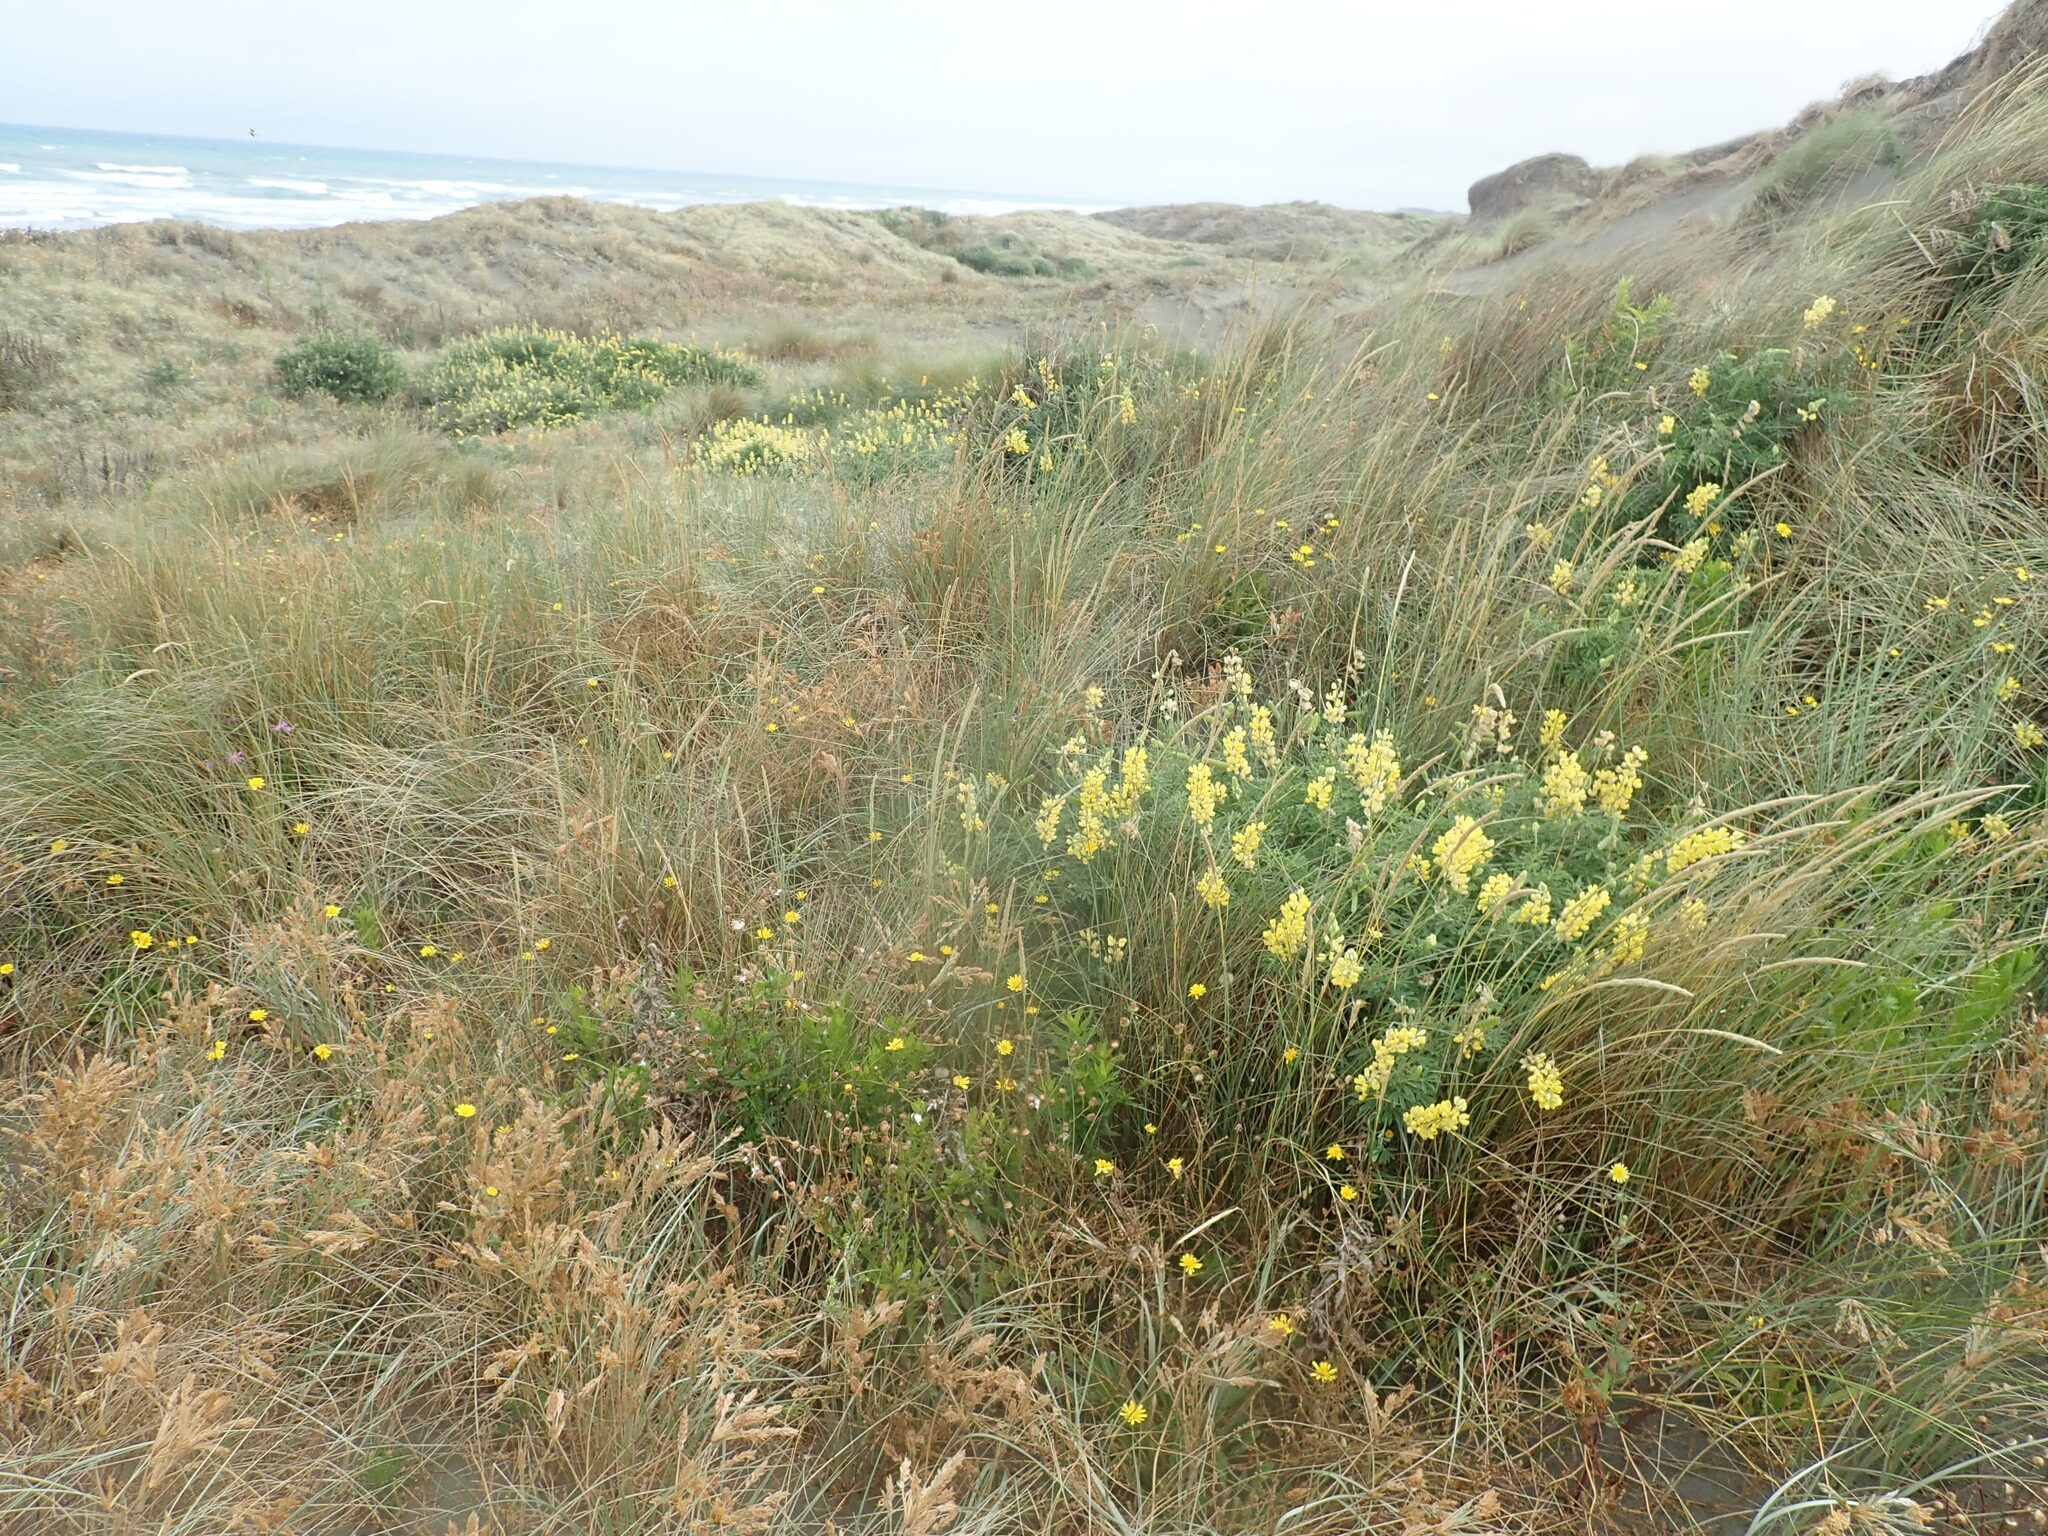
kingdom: Plantae
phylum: Tracheophyta
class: Magnoliopsida
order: Fabales
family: Fabaceae
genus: Lupinus
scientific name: Lupinus arboreus
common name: Yellow bush lupine
